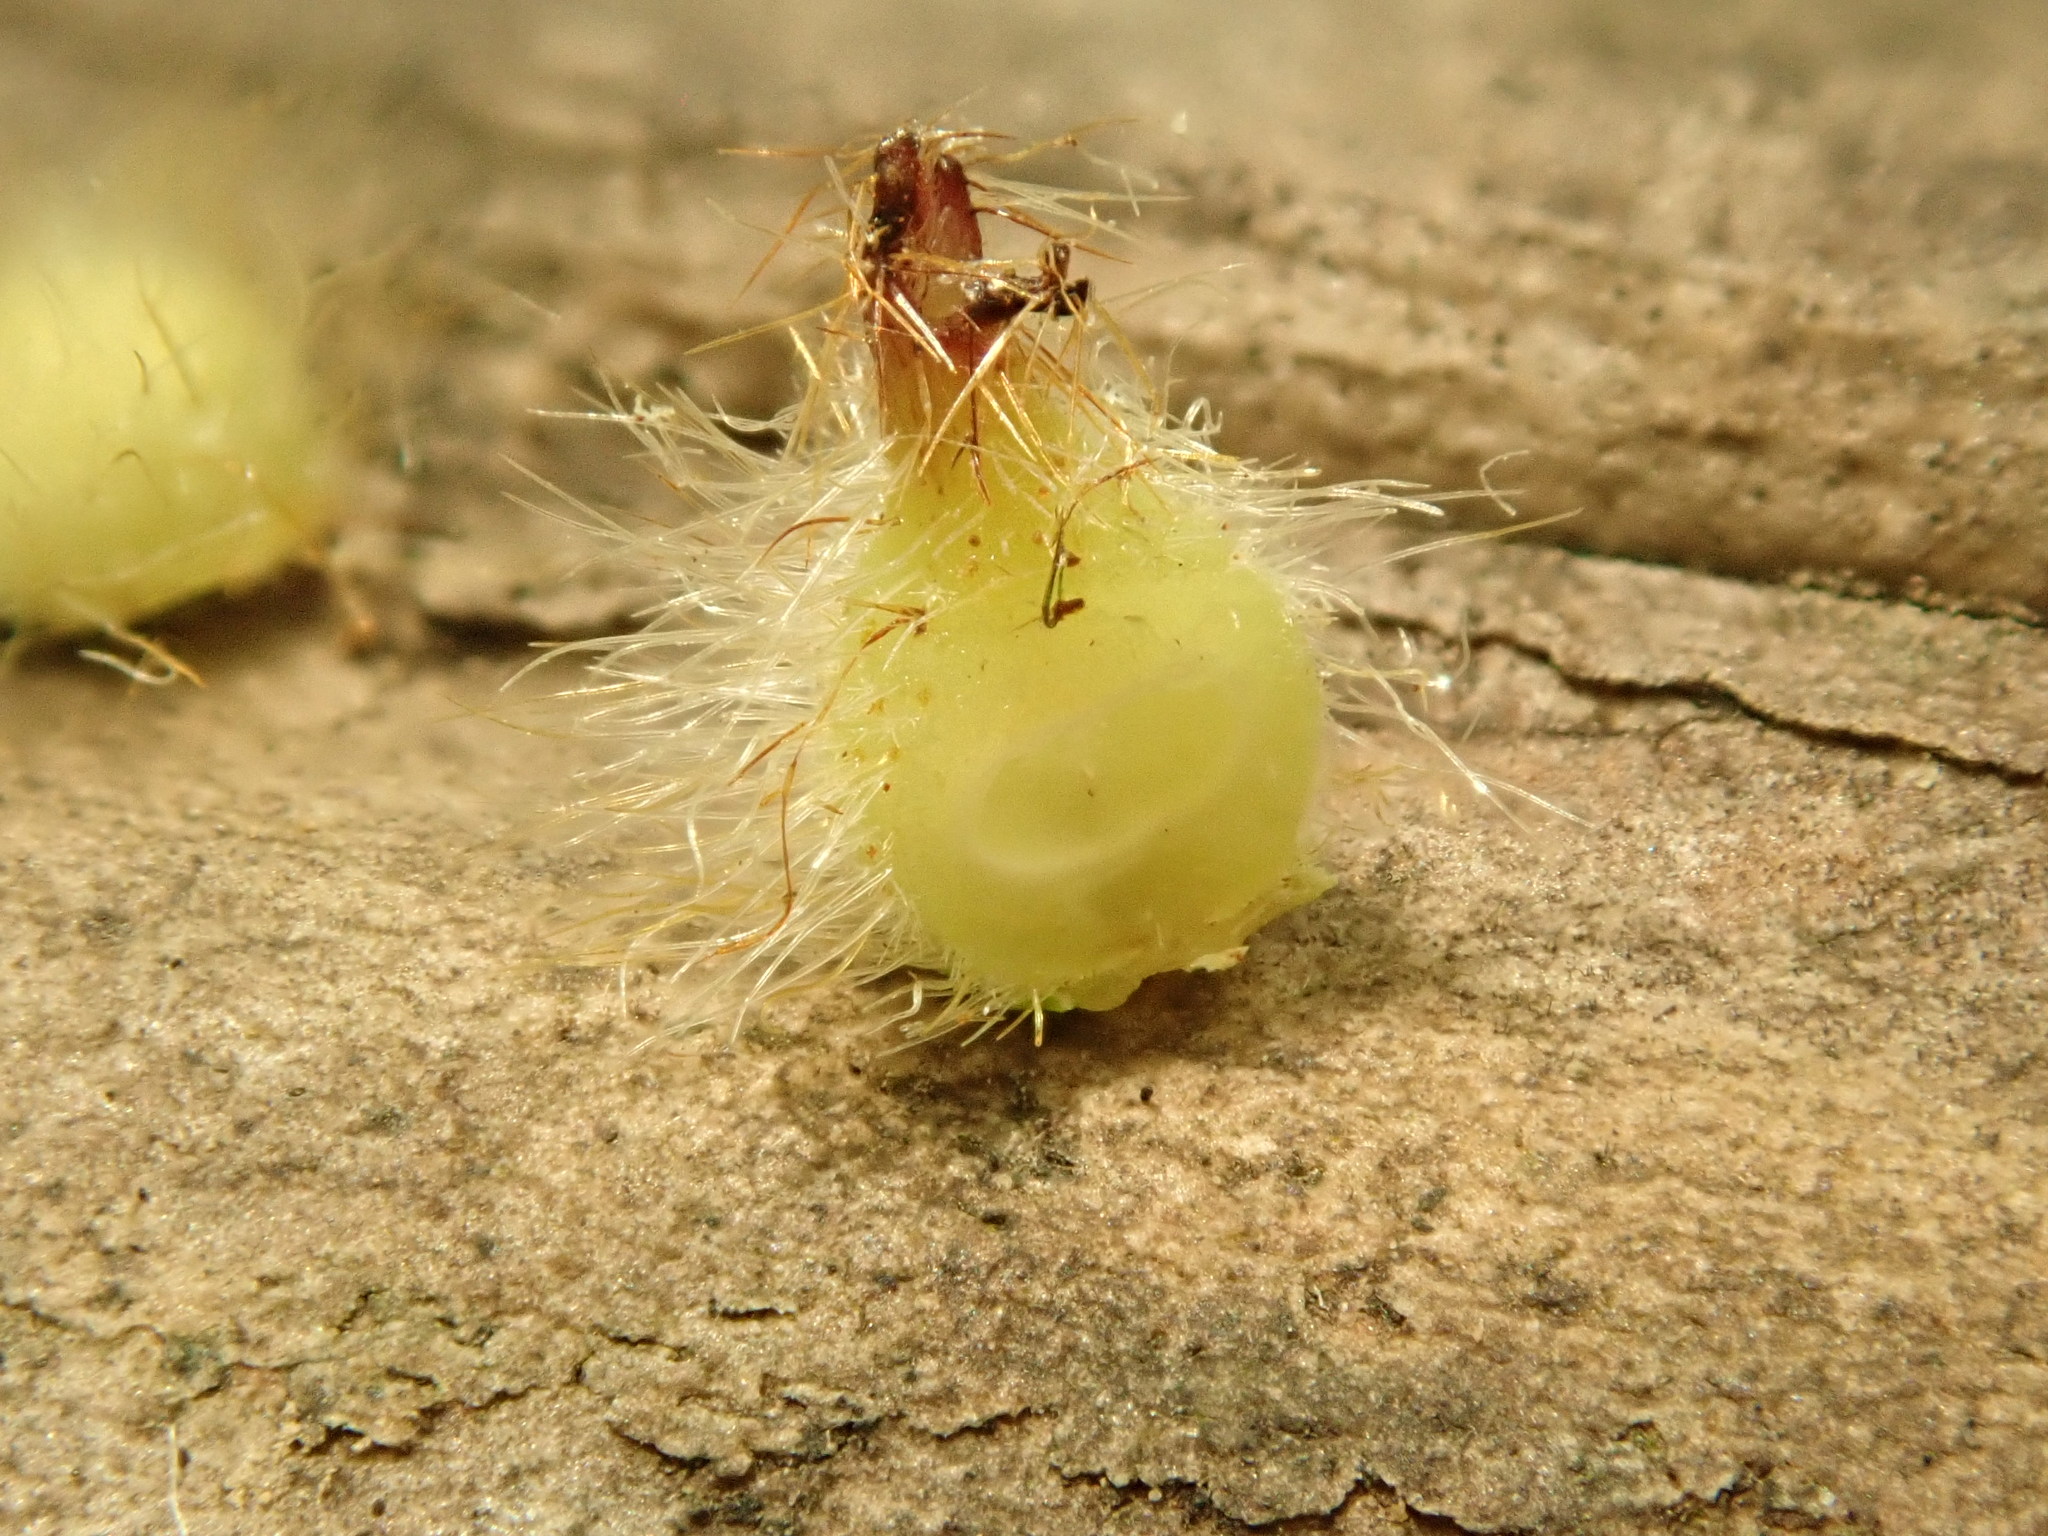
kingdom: Animalia
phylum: Arthropoda
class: Insecta
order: Diptera
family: Cecidomyiidae
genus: Caryomyia
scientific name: Caryomyia echinata
